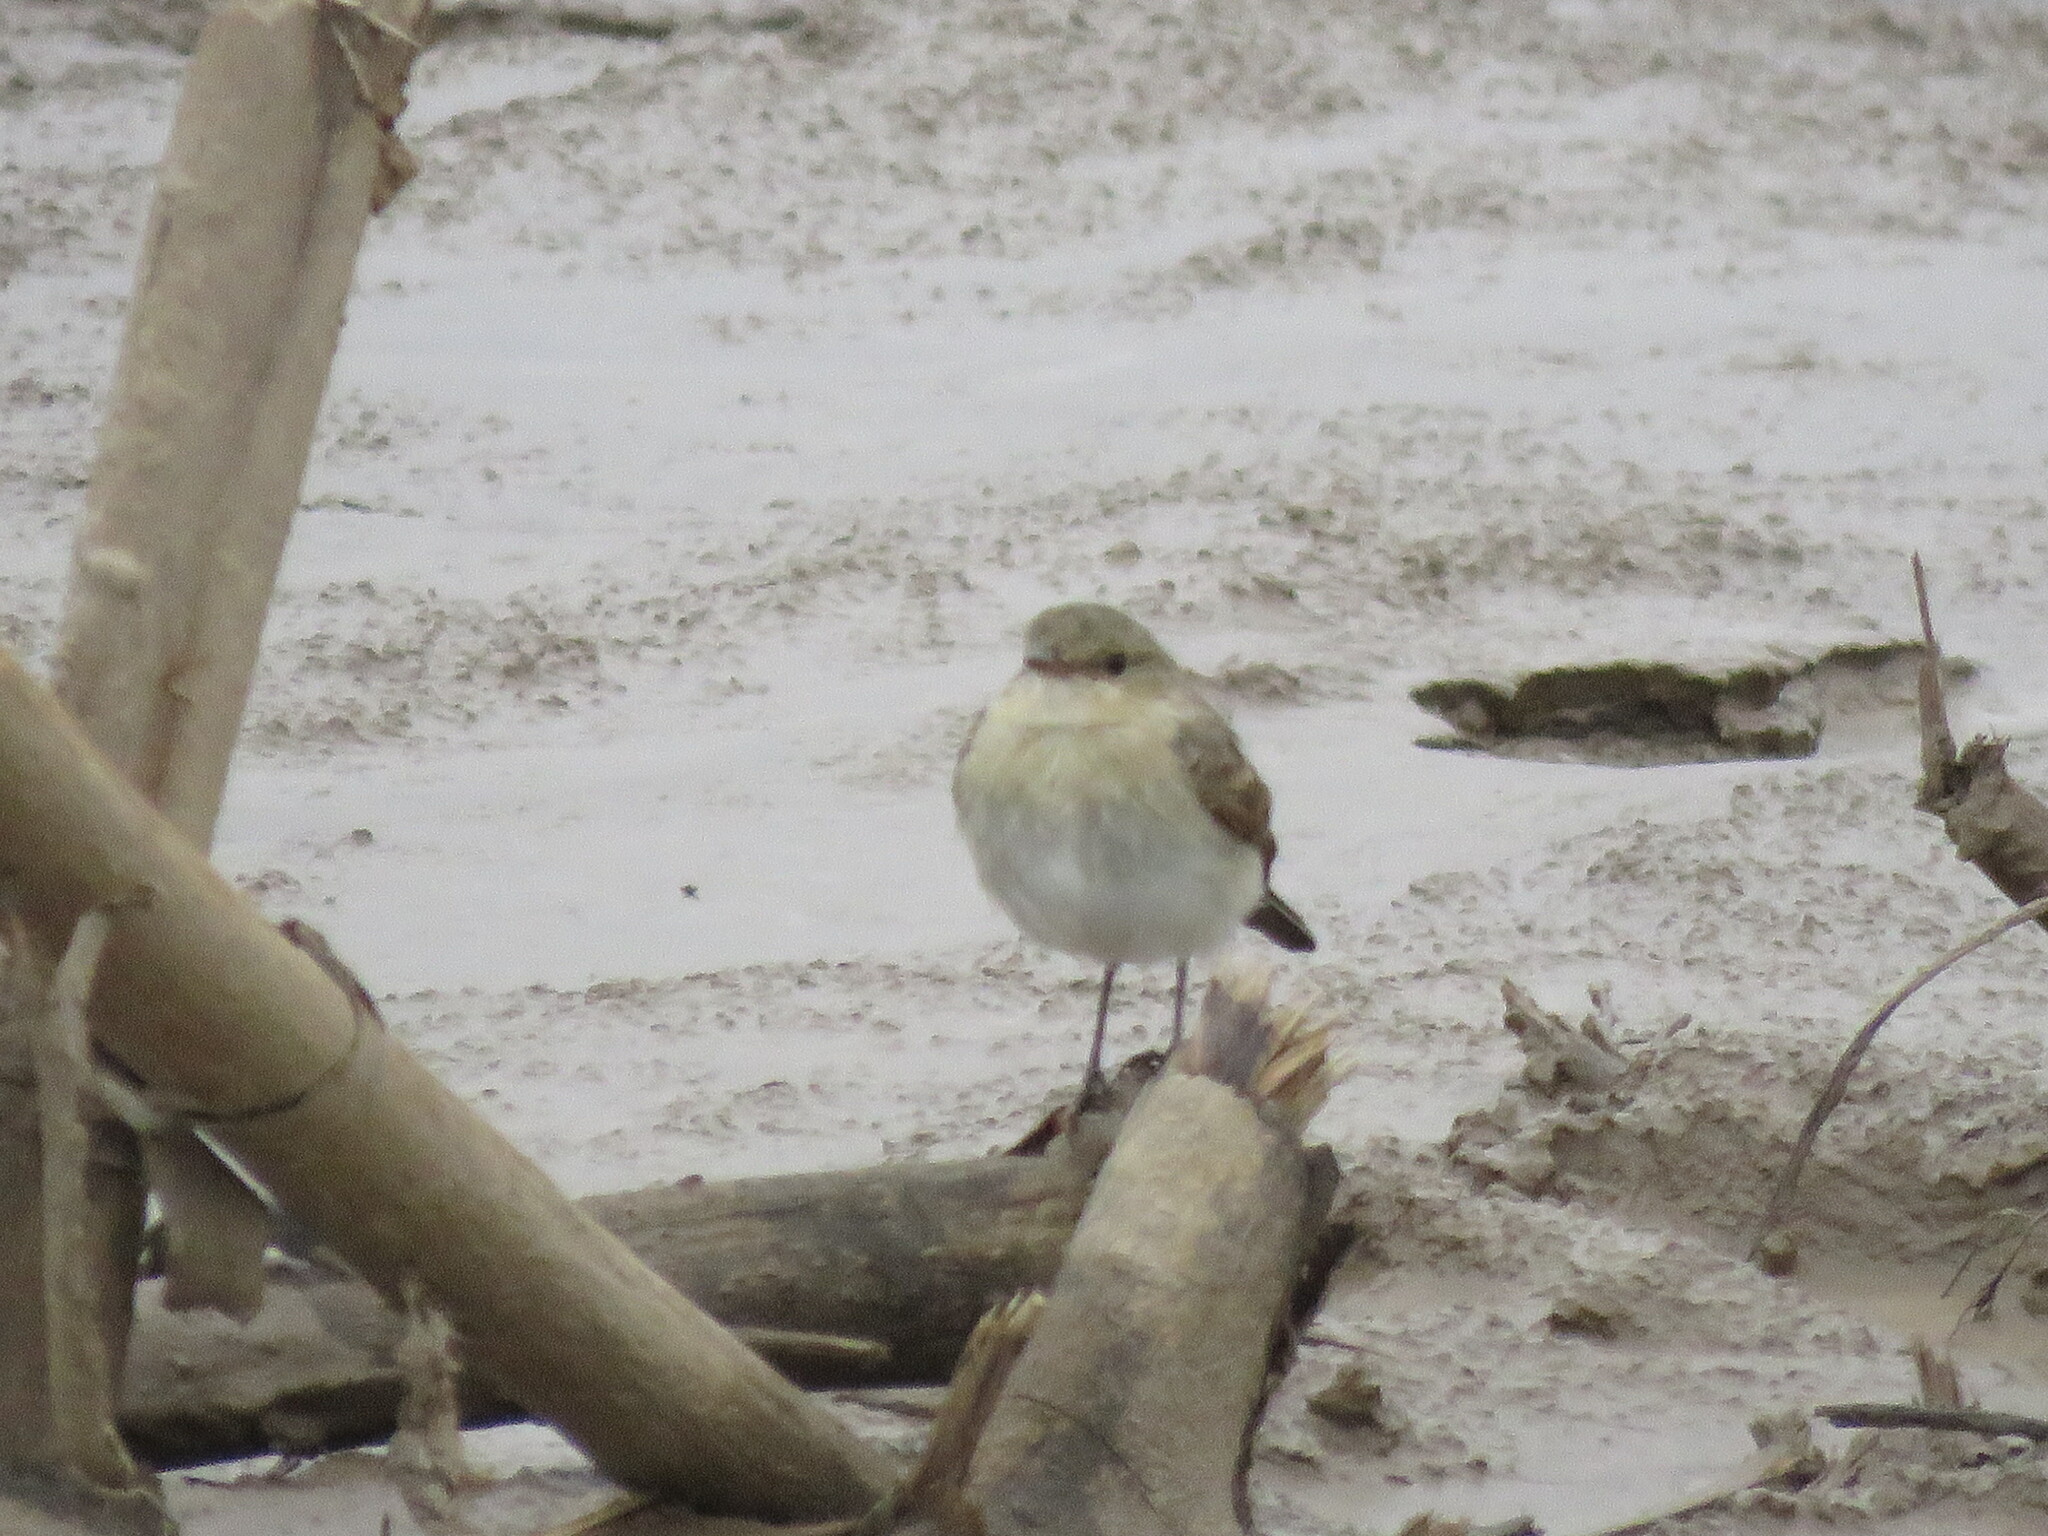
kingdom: Animalia
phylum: Chordata
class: Aves
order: Passeriformes
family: Tyrannidae
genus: Muscisaxicola
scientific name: Muscisaxicola fluviatilis
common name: Little ground tyrant
